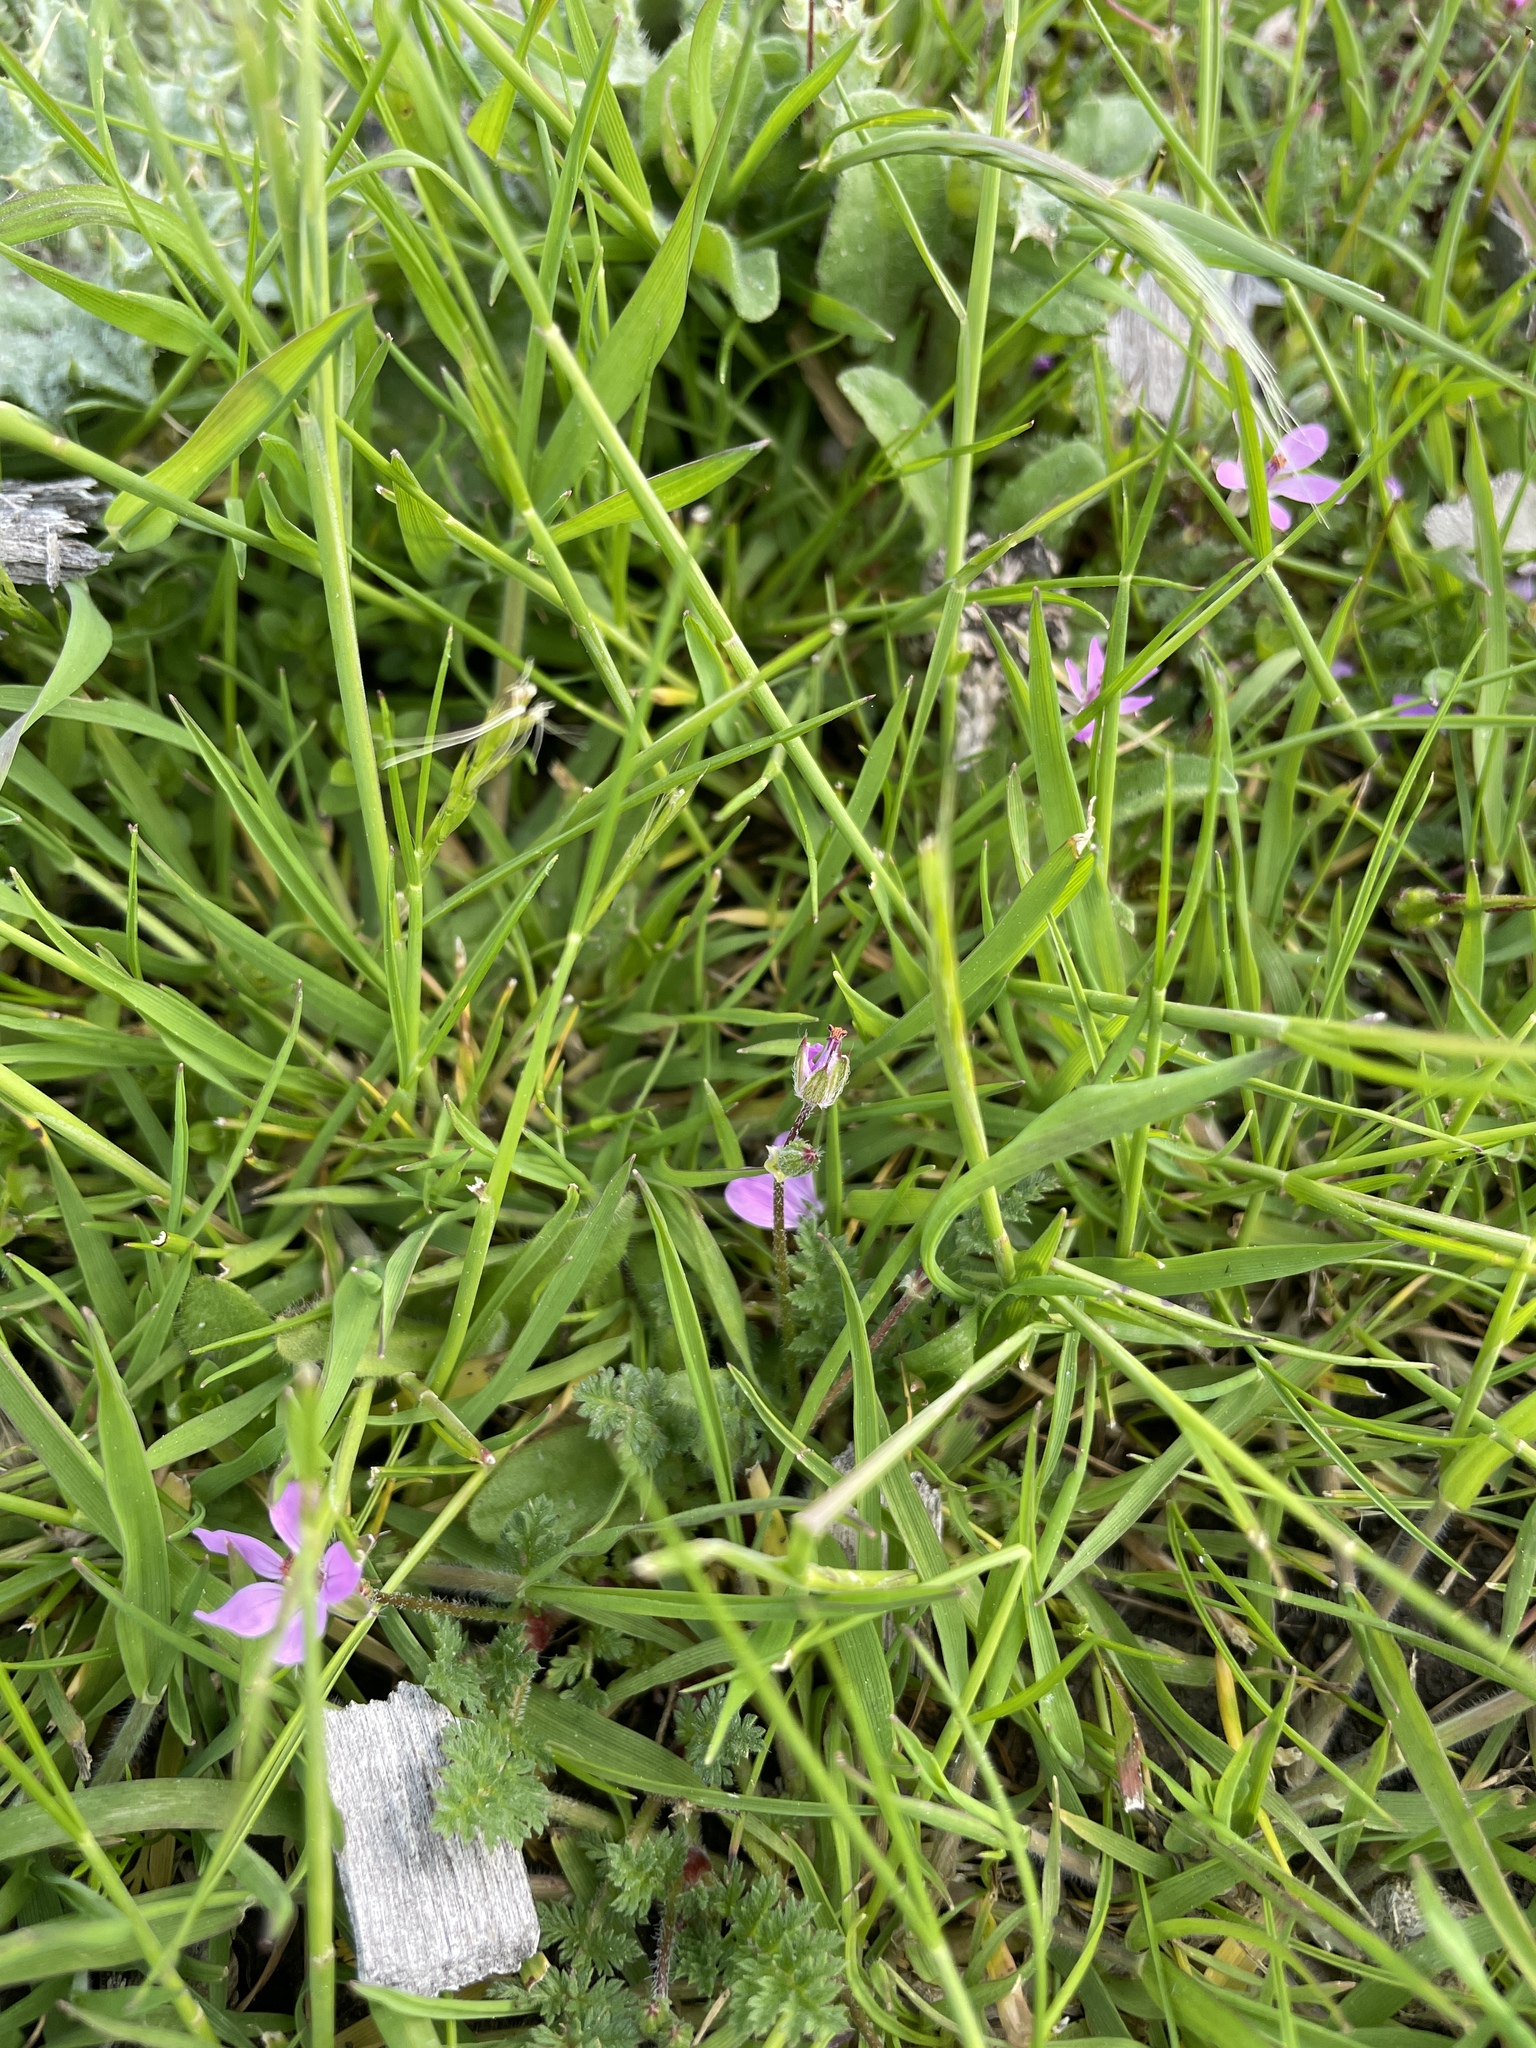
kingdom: Plantae
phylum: Tracheophyta
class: Magnoliopsida
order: Geraniales
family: Geraniaceae
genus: Erodium
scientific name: Erodium cicutarium
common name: Common stork's-bill
